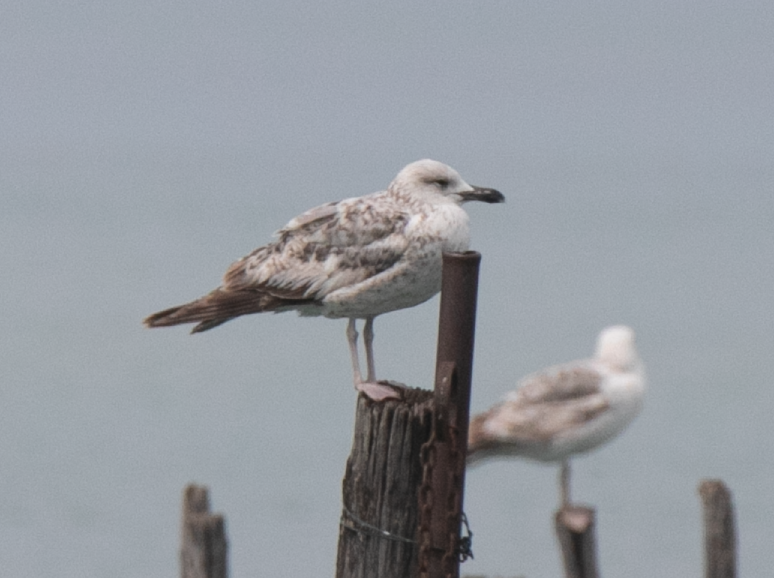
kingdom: Animalia
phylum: Chordata
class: Aves
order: Charadriiformes
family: Laridae
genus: Larus
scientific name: Larus michahellis
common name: Yellow-legged gull
